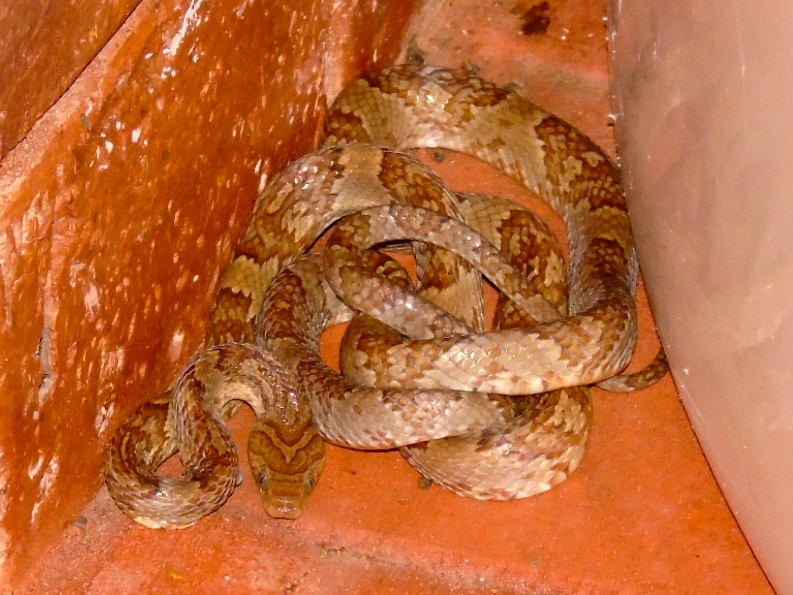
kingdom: Animalia
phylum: Chordata
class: Squamata
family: Colubridae
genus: Trimorphodon
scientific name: Trimorphodon paucimaculatus
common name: Sinaloan lyresnake
